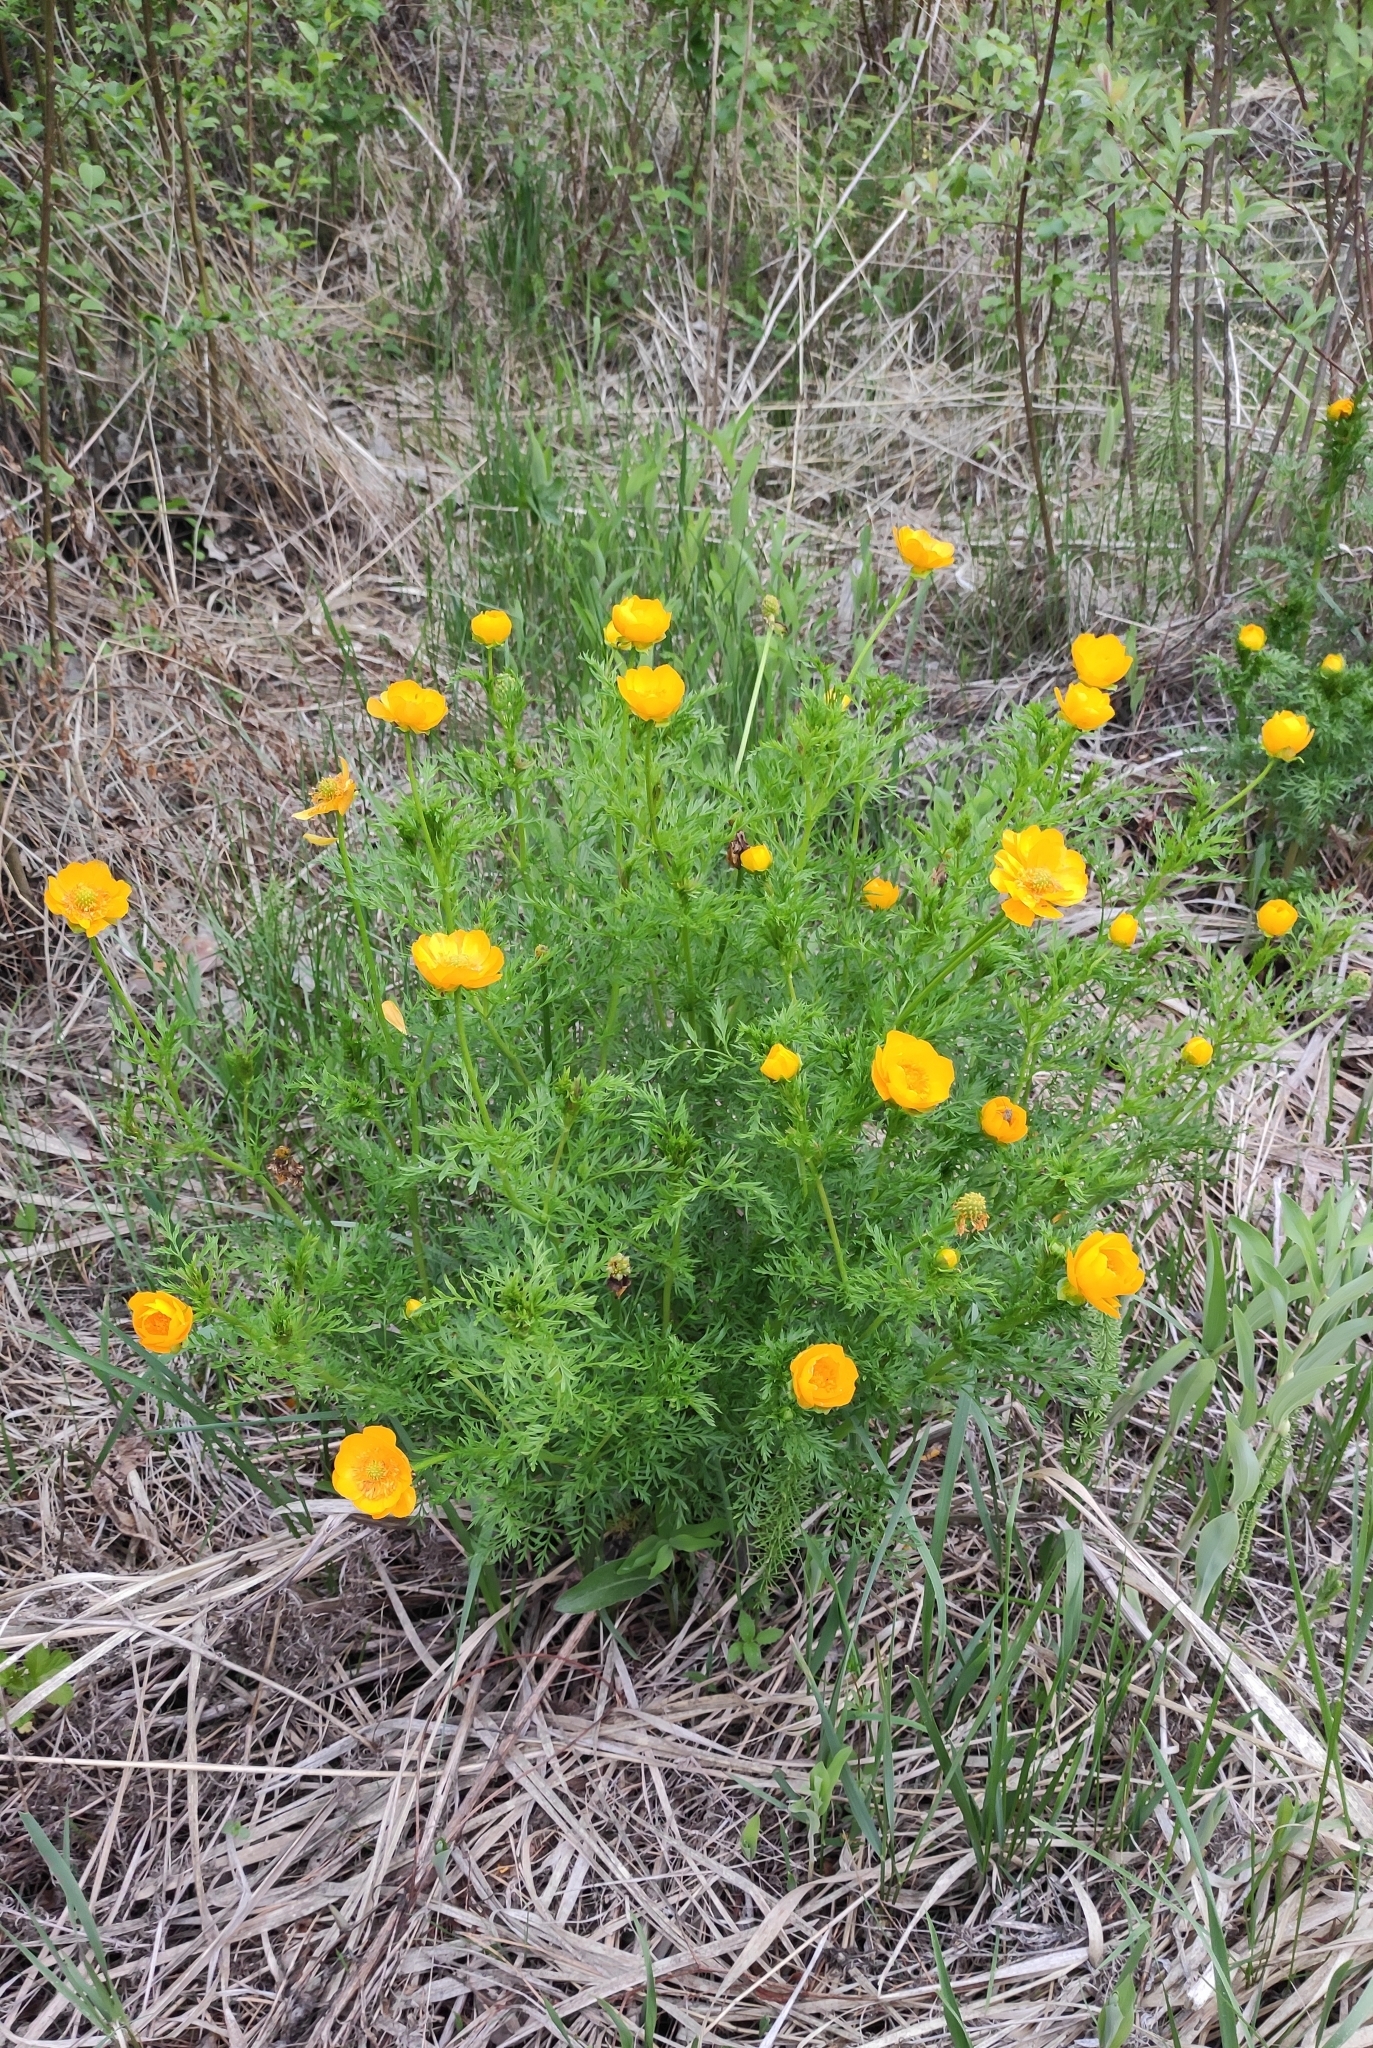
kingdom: Plantae
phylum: Tracheophyta
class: Magnoliopsida
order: Ranunculales
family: Ranunculaceae
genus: Adonis
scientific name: Adonis
